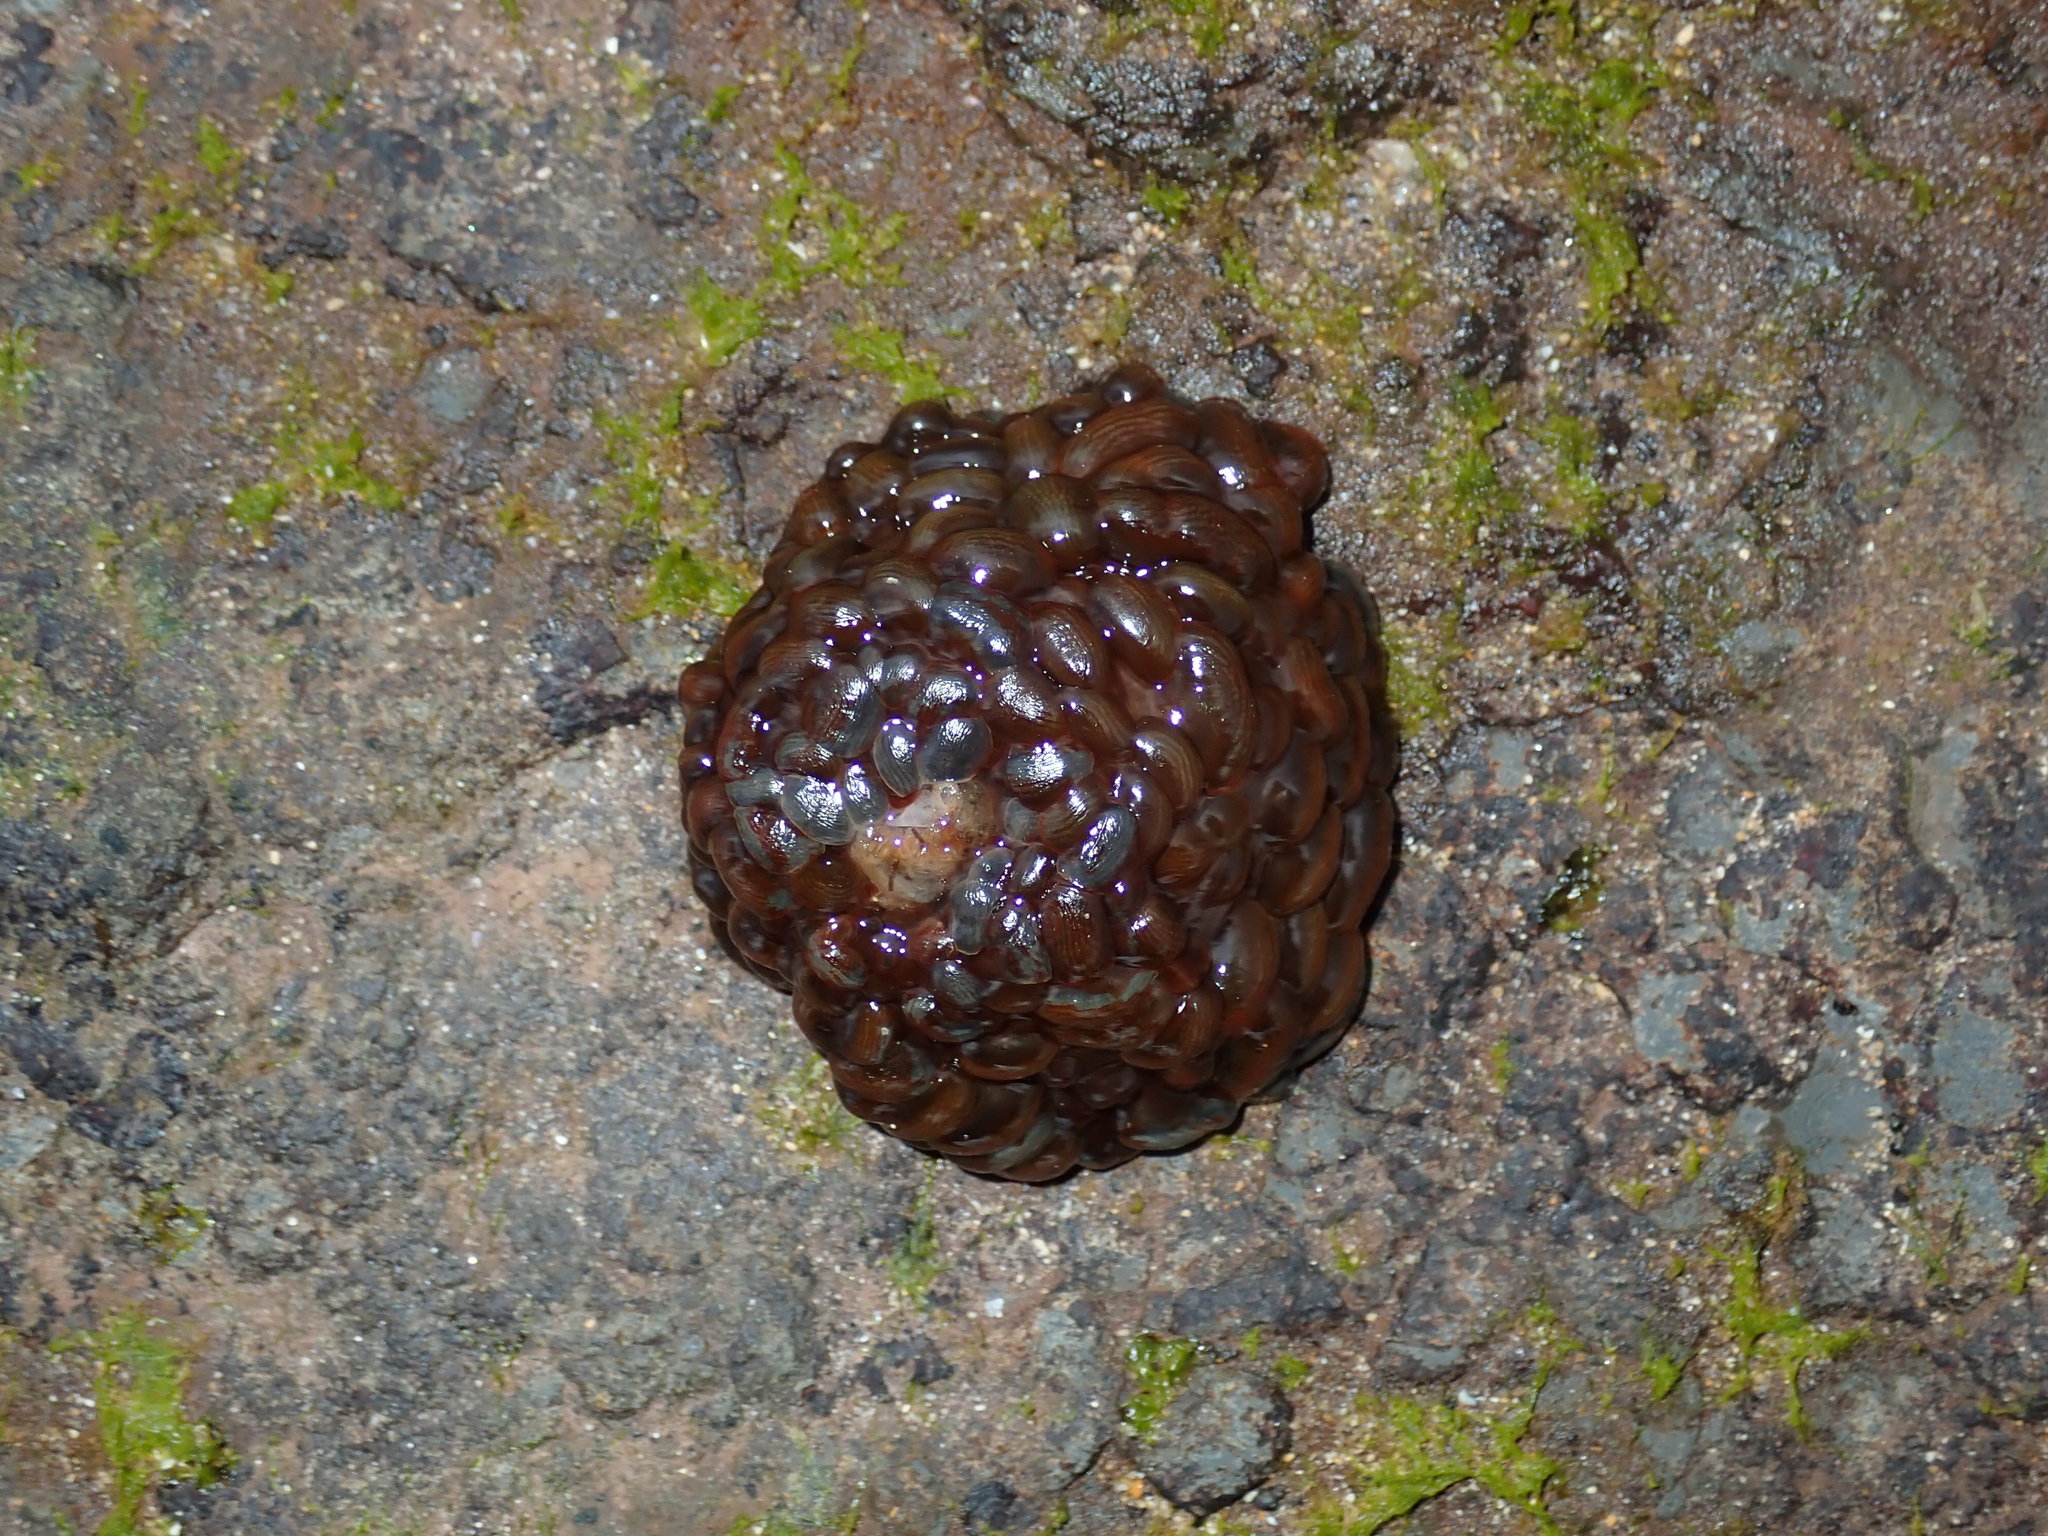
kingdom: Animalia
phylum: Cnidaria
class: Anthozoa
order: Actiniaria
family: Actiniidae
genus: Phlyctenactis
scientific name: Phlyctenactis tuberculosa
